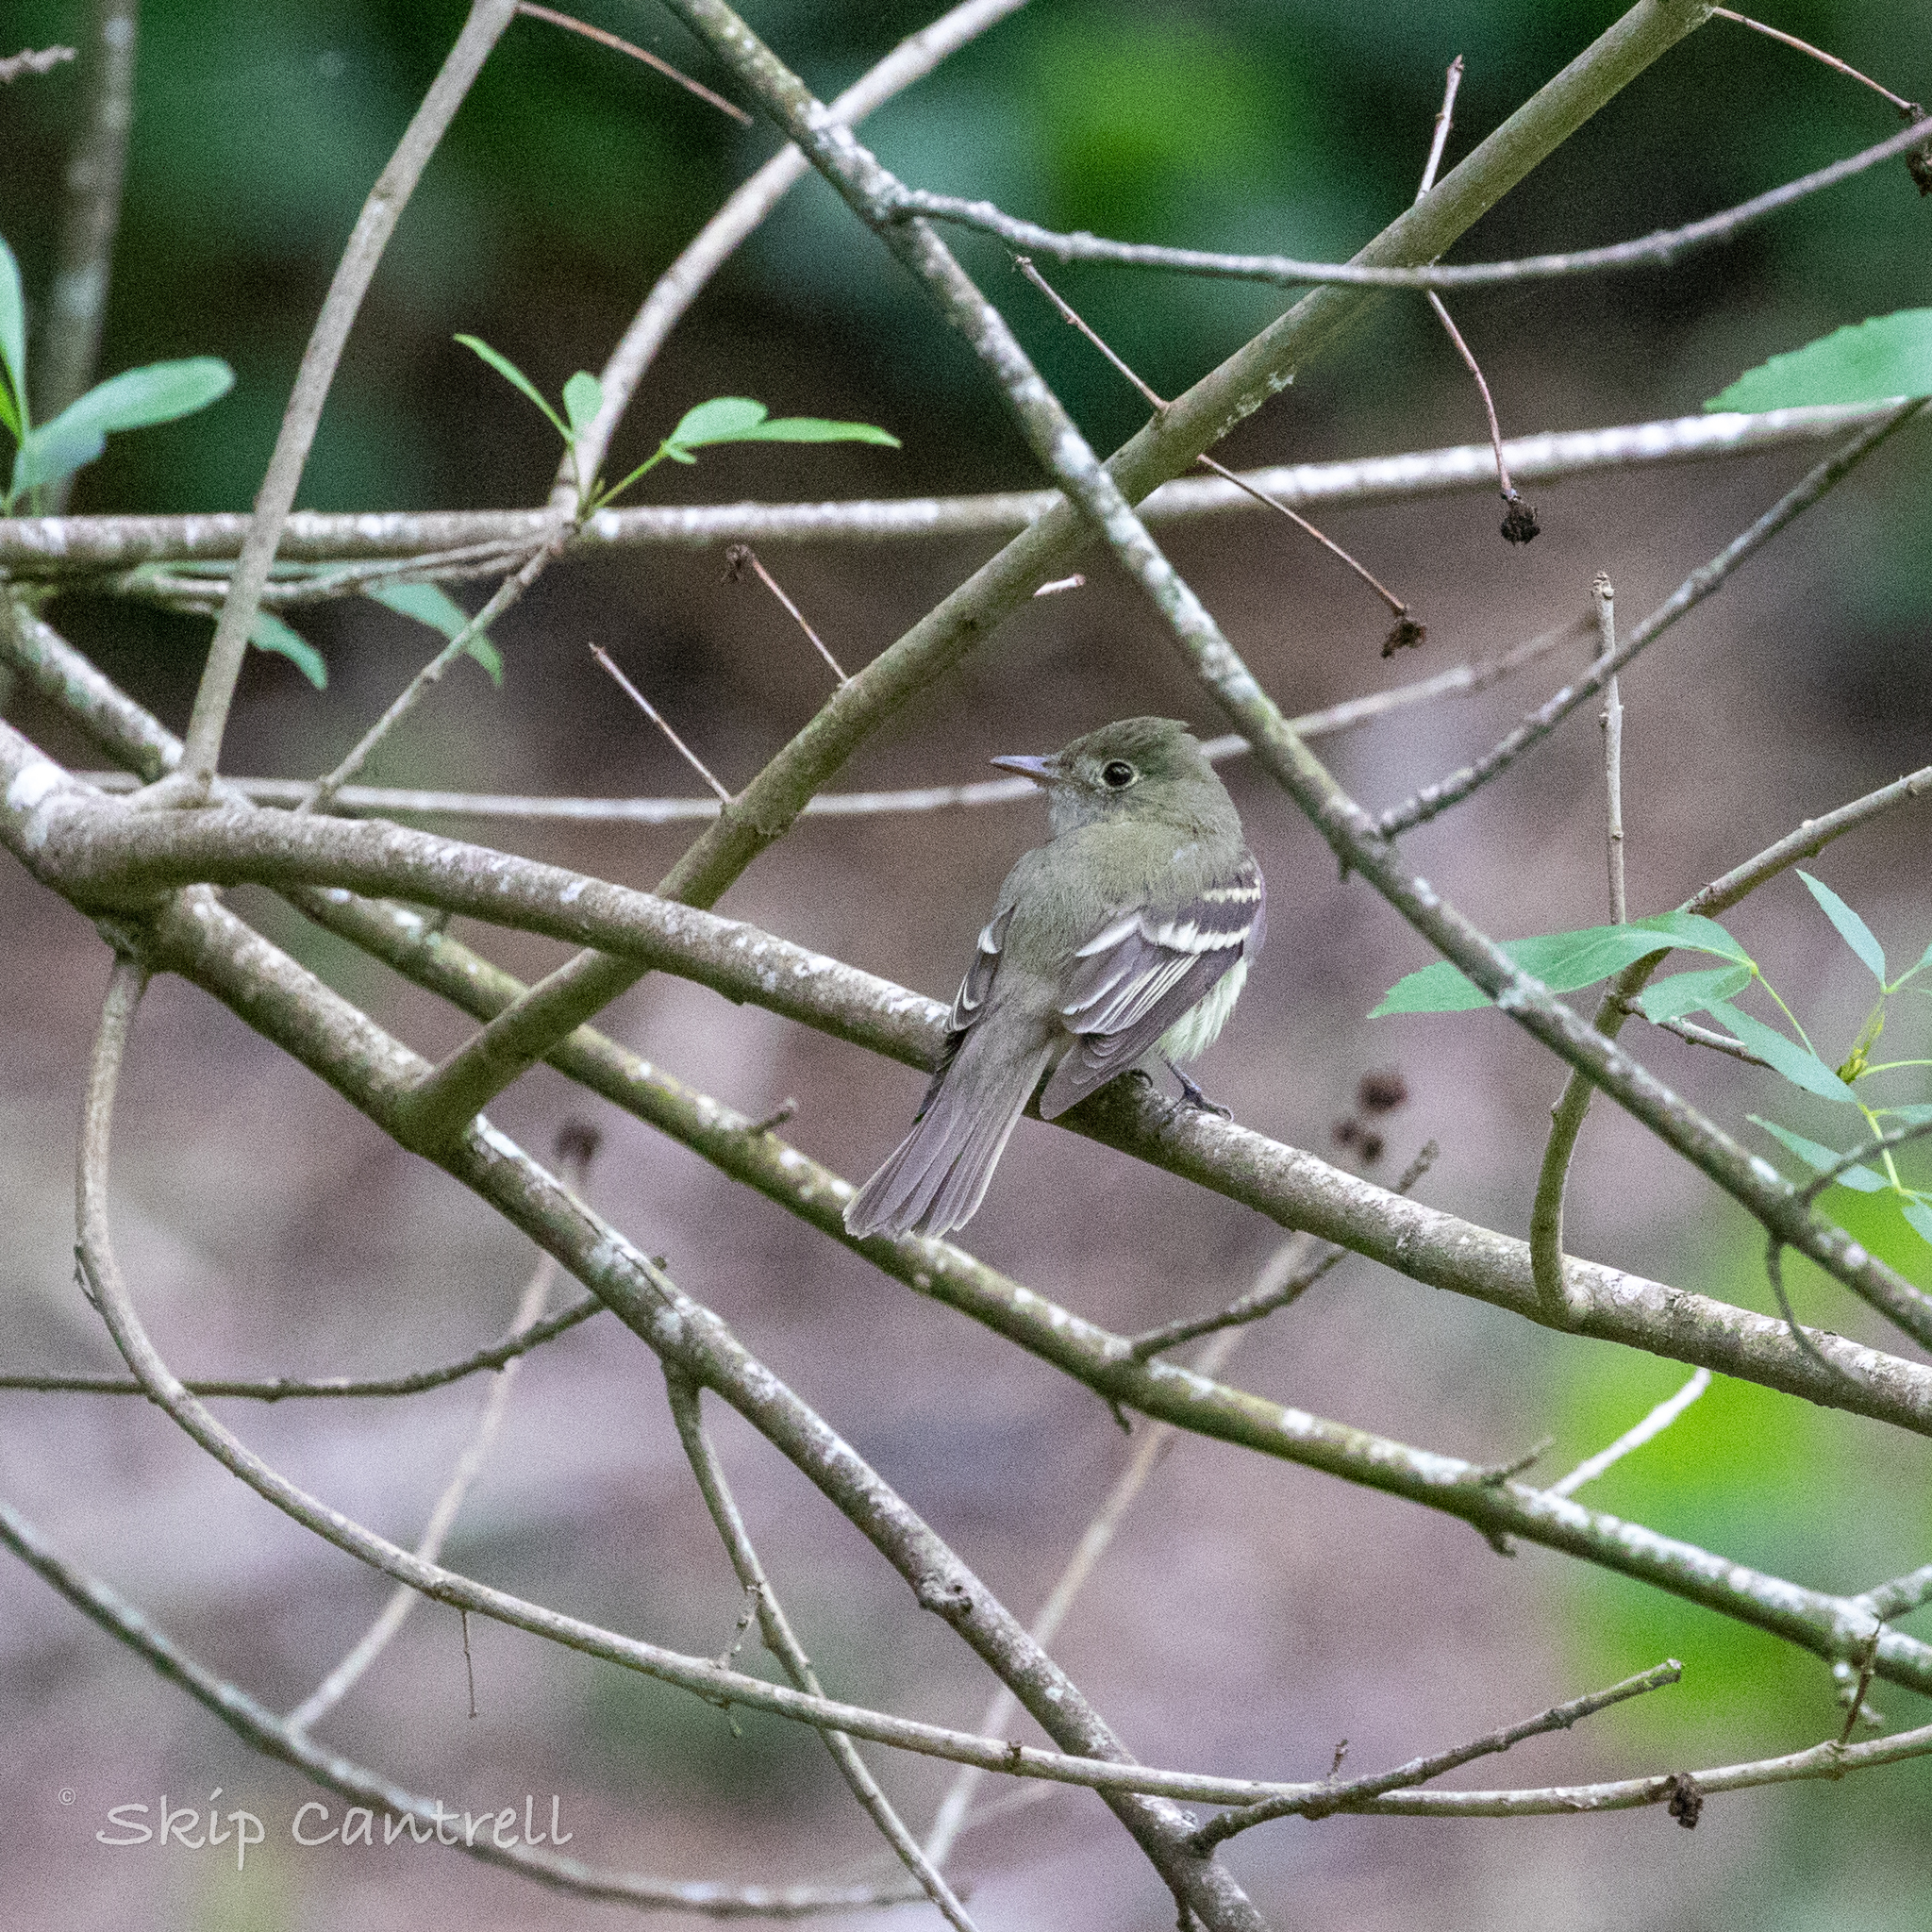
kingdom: Animalia
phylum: Chordata
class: Aves
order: Passeriformes
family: Tyrannidae
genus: Empidonax
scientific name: Empidonax virescens
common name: Acadian flycatcher
